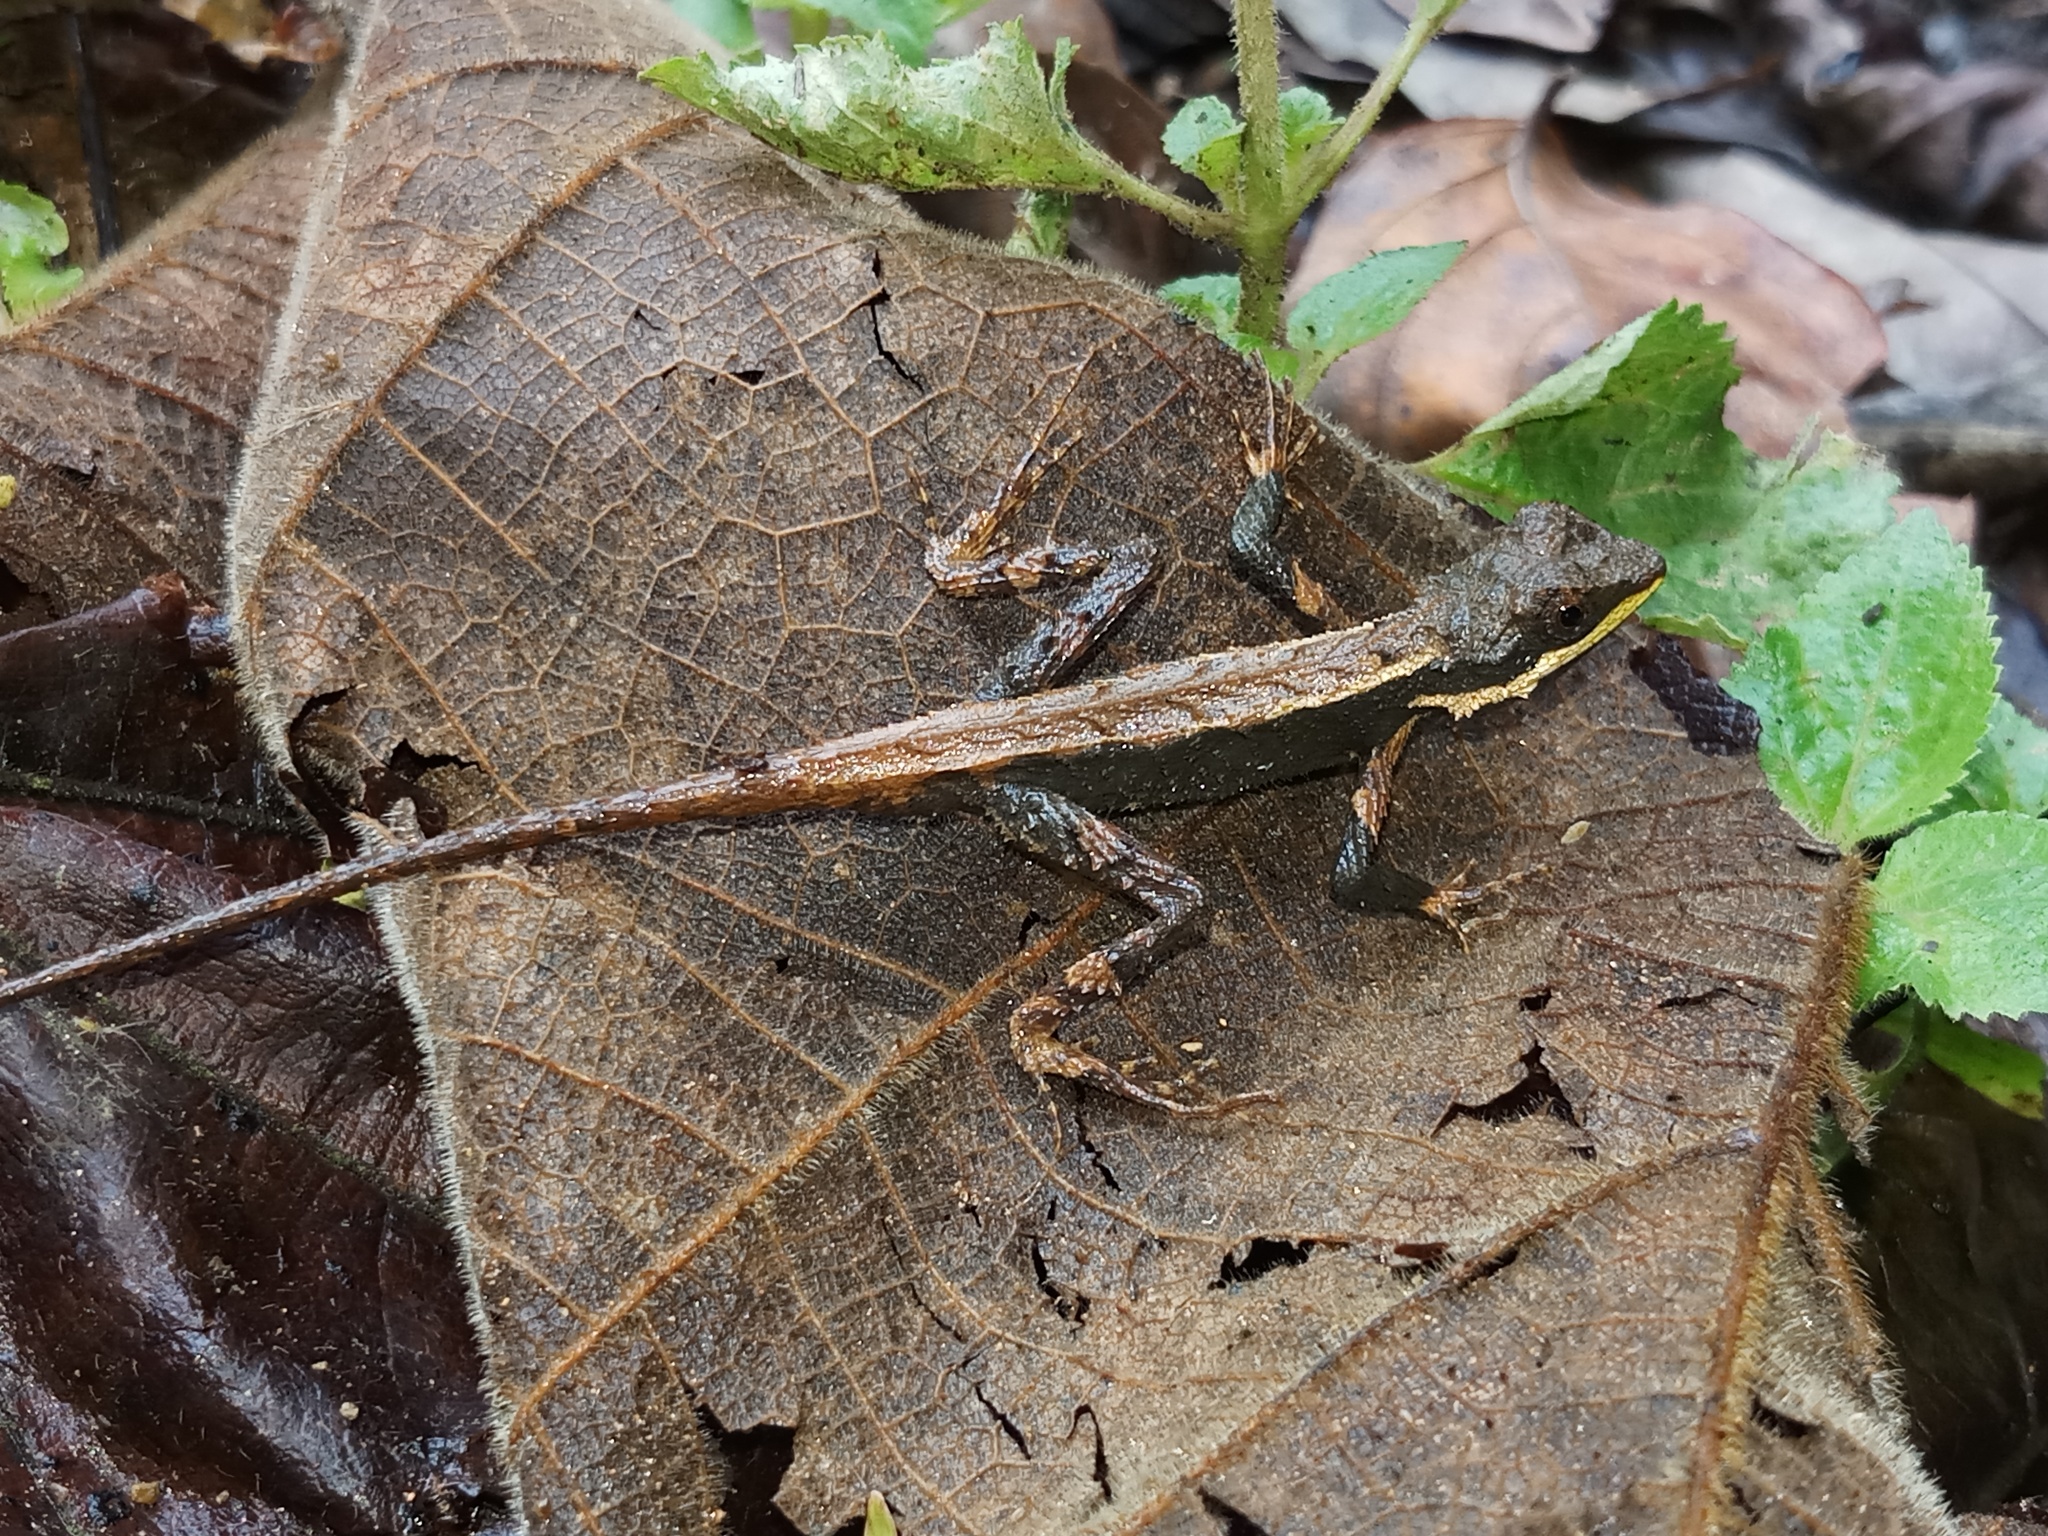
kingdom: Animalia
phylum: Chordata
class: Squamata
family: Agamidae
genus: Cristidorsa
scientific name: Cristidorsa planidorsata
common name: Smooth-scaled mountain lizard
